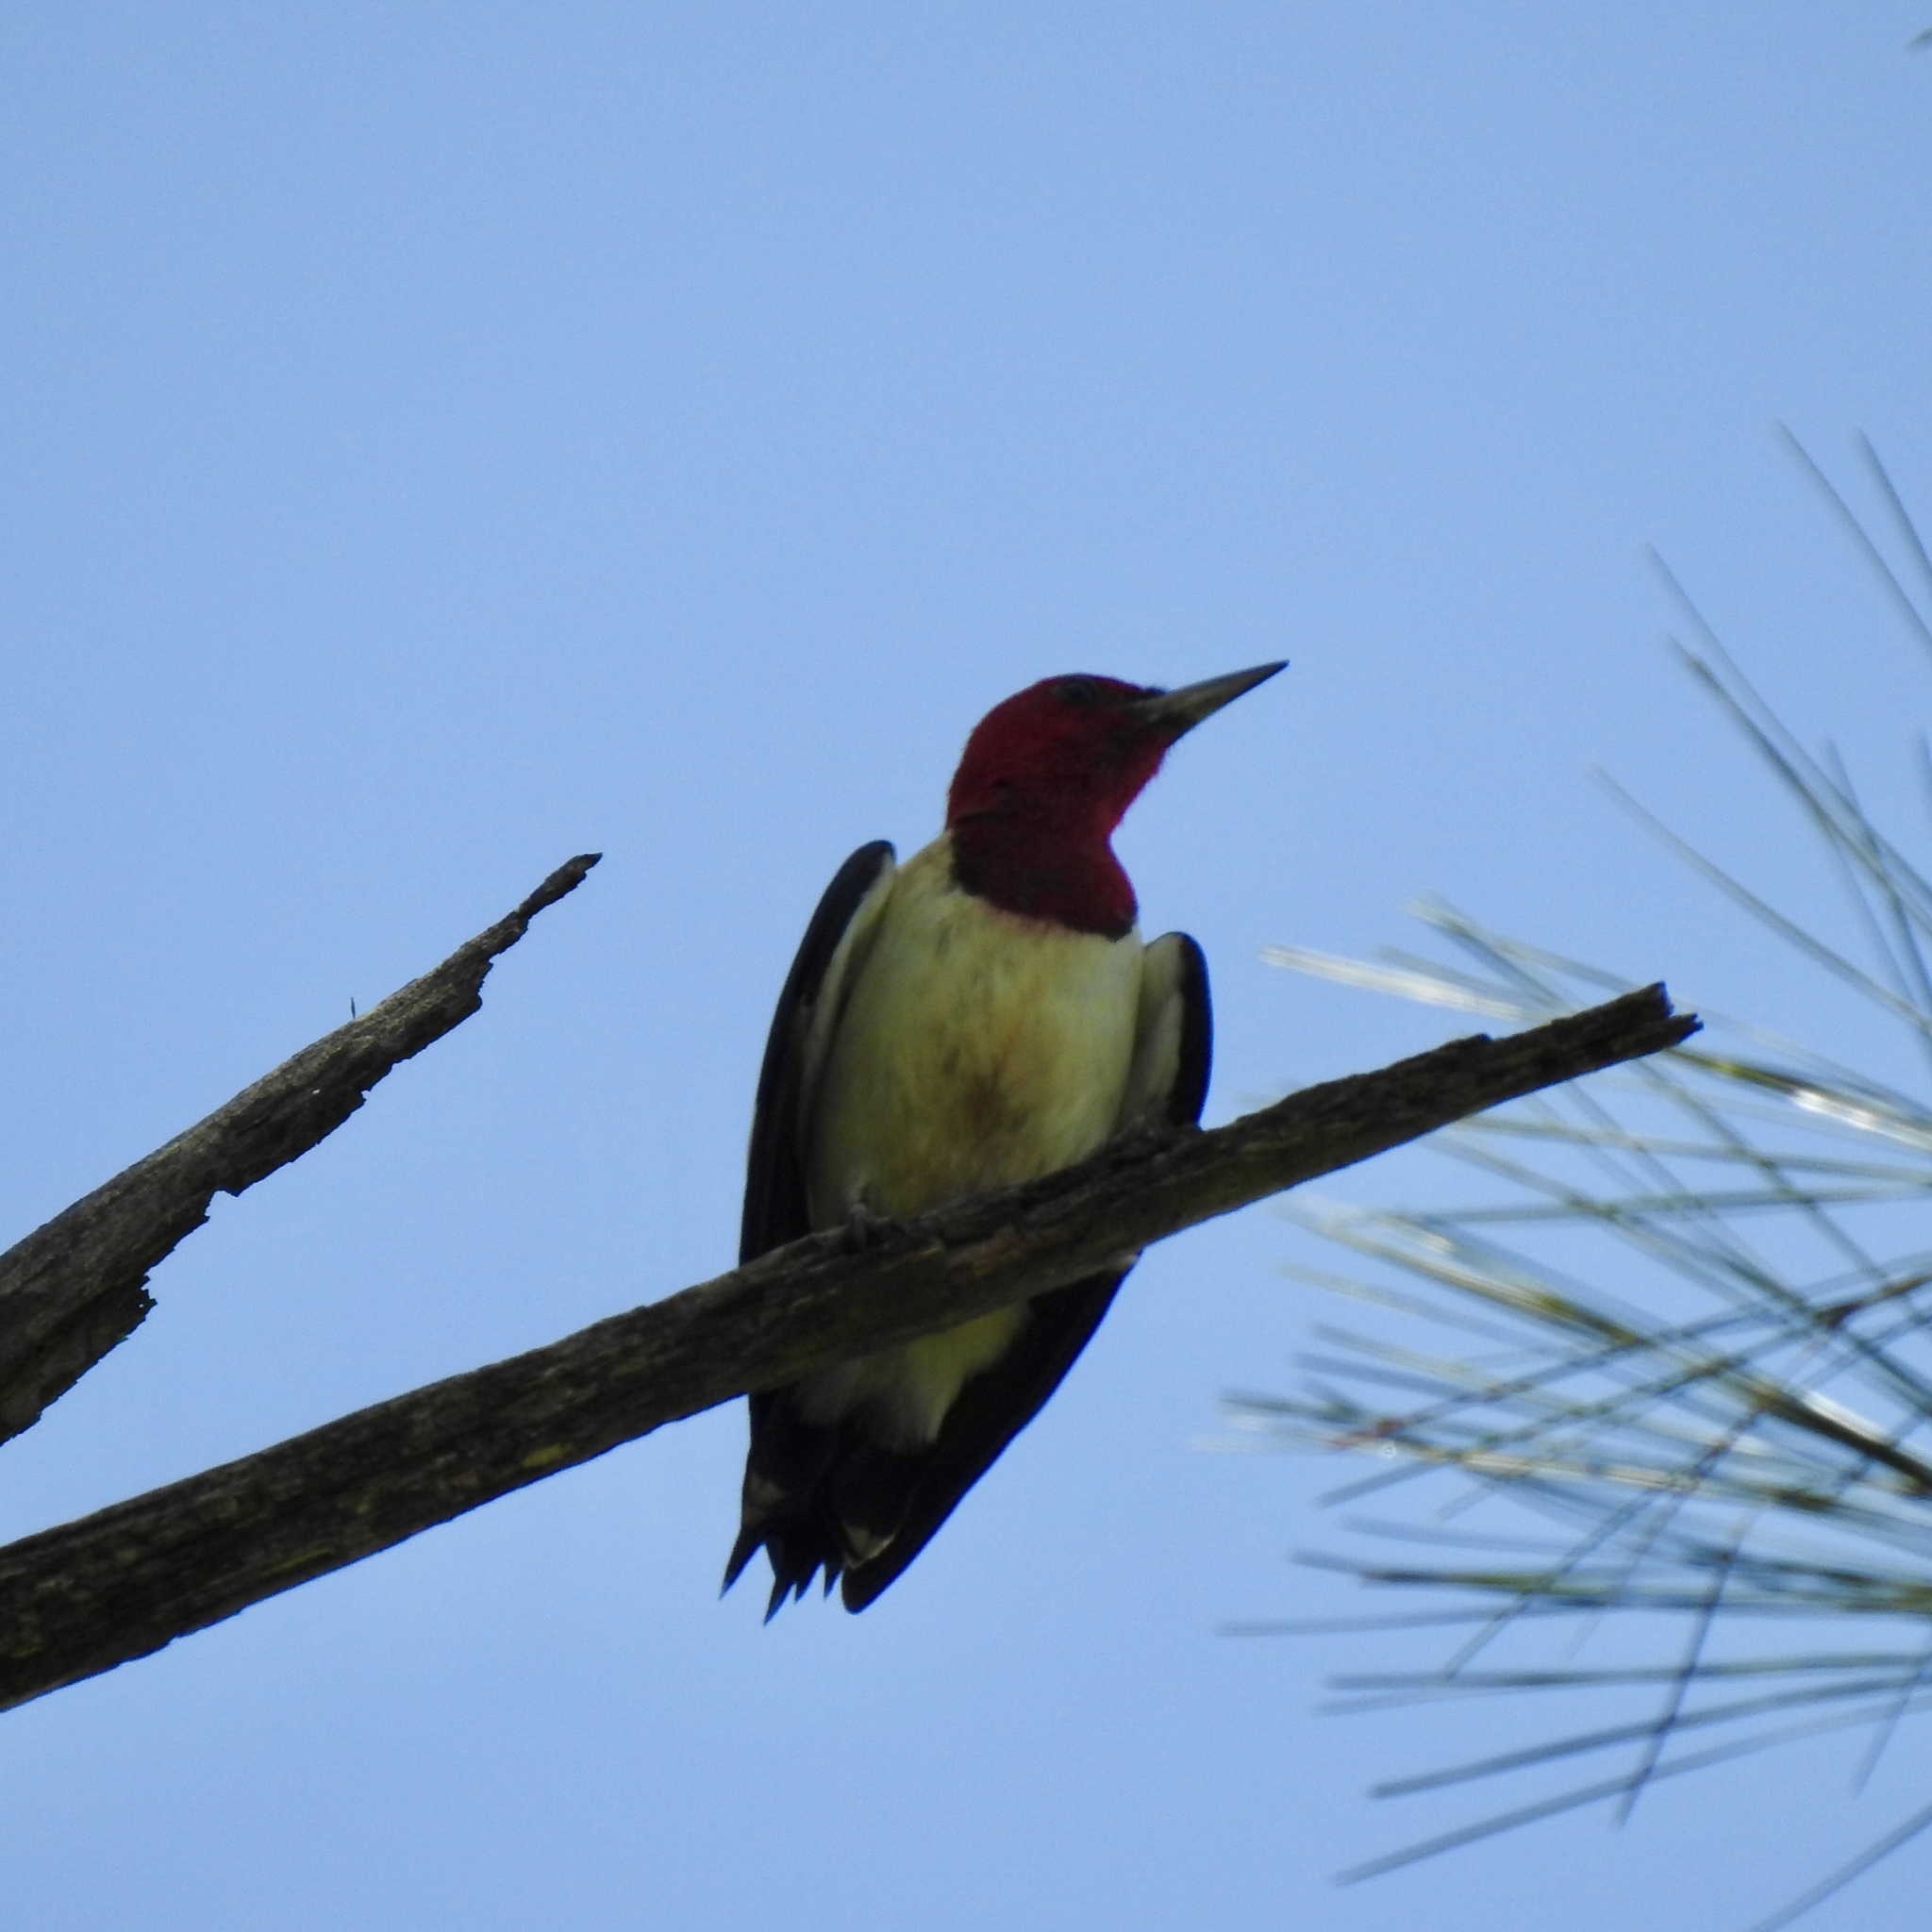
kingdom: Animalia
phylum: Chordata
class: Aves
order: Piciformes
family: Picidae
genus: Melanerpes
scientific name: Melanerpes erythrocephalus
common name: Red-headed woodpecker
